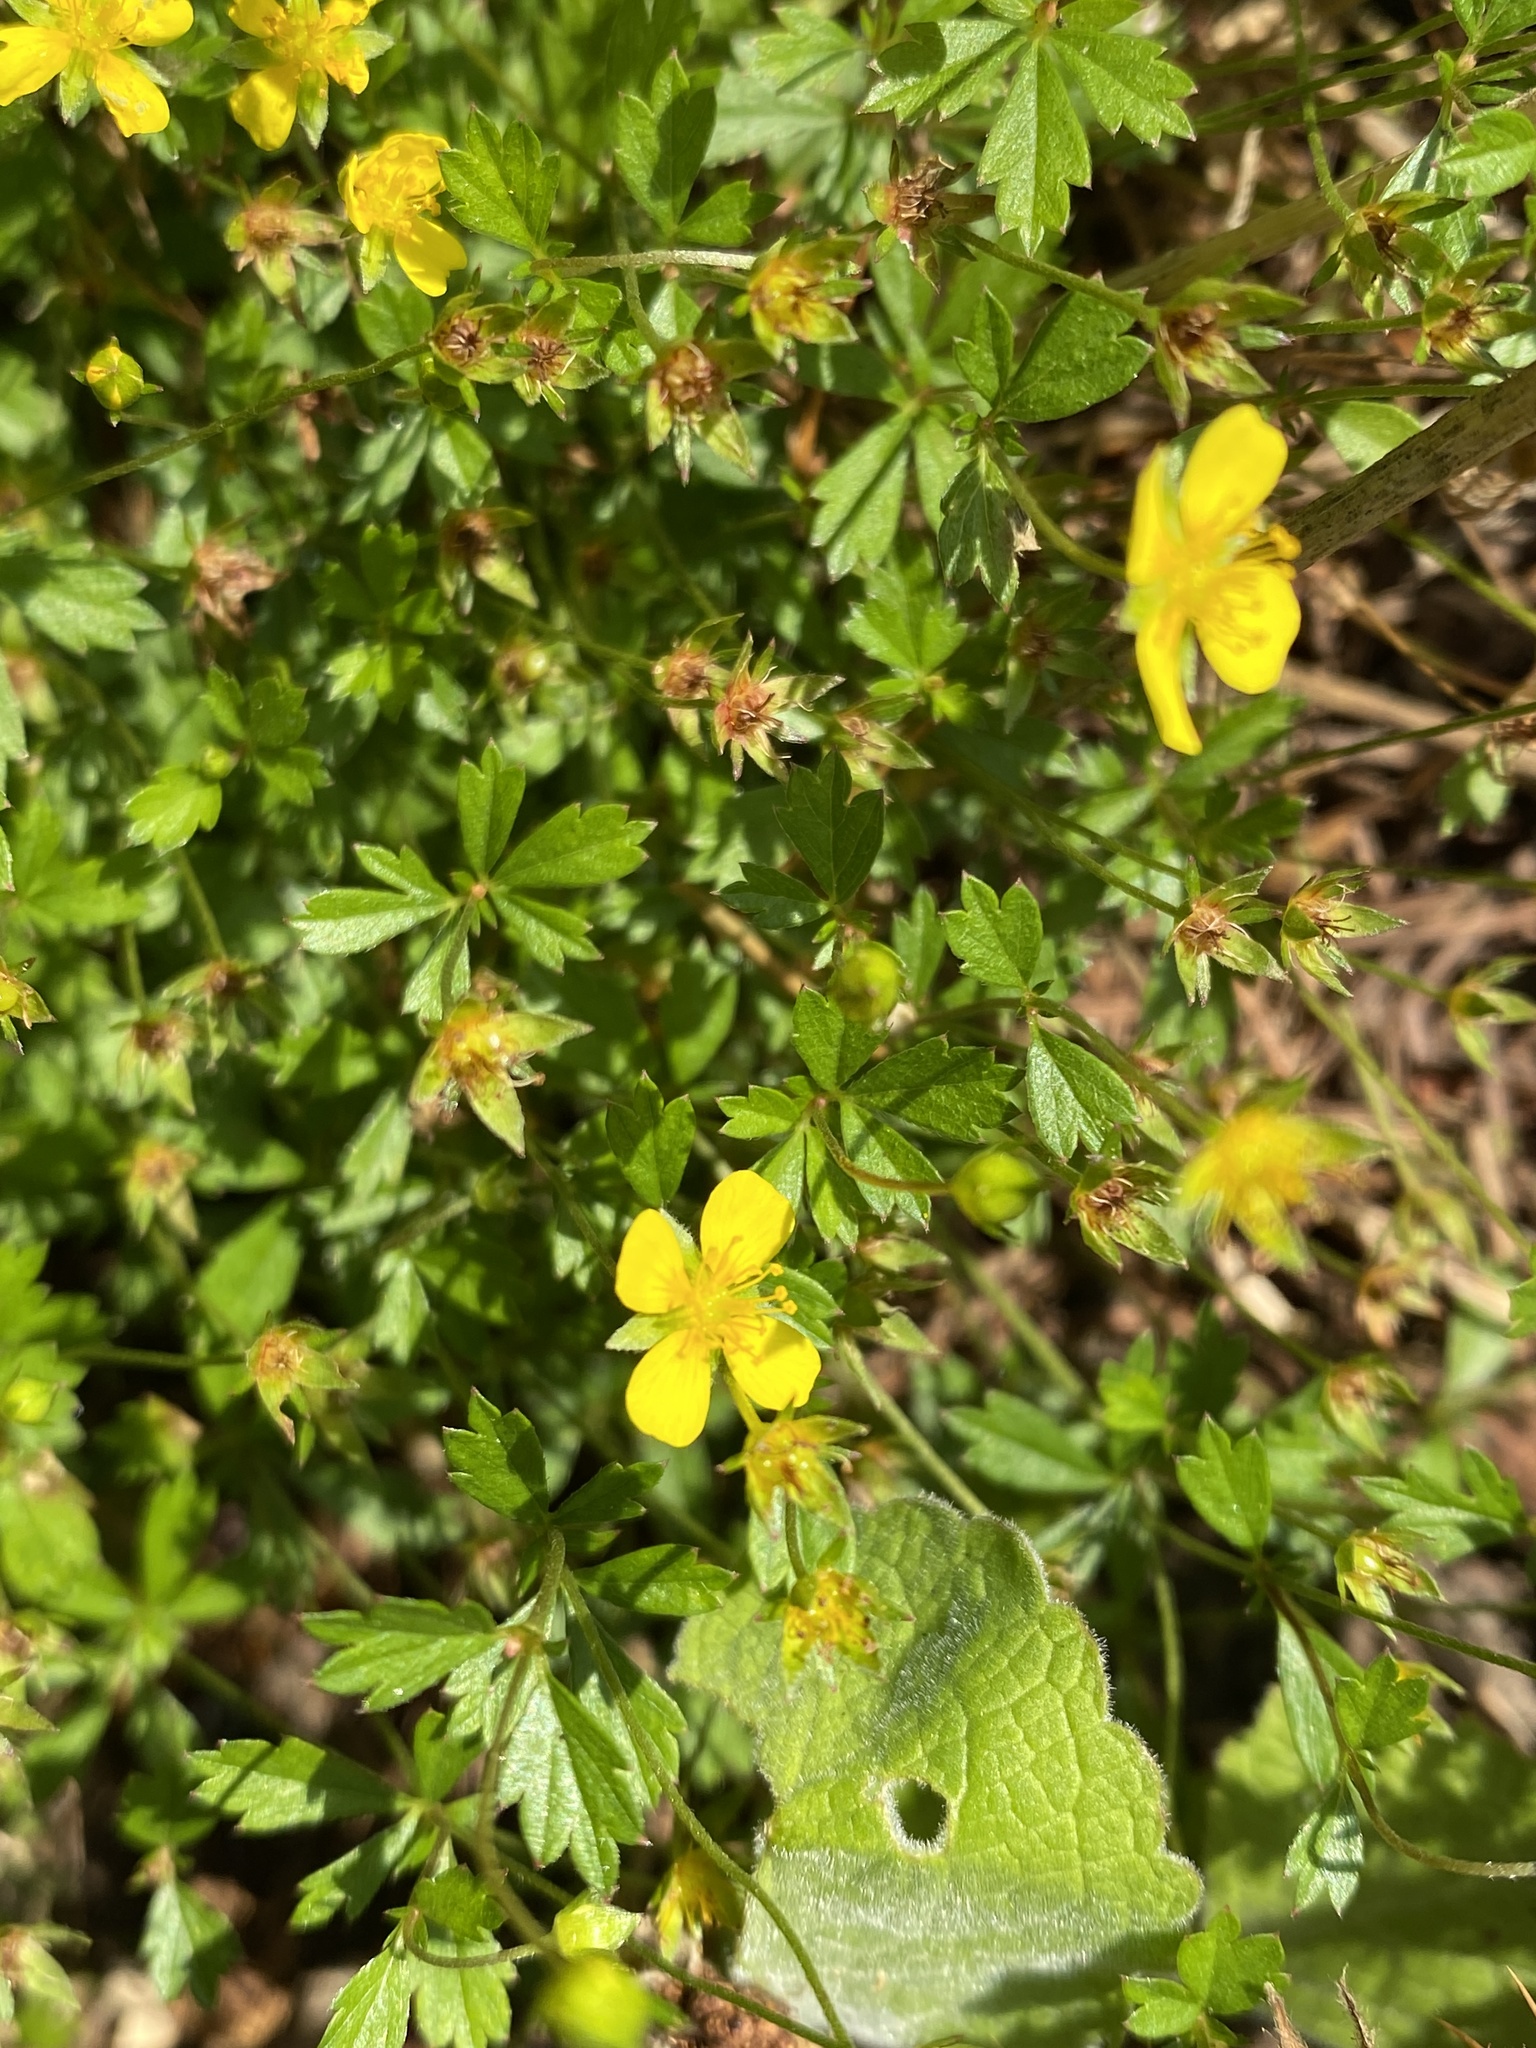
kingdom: Plantae
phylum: Tracheophyta
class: Magnoliopsida
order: Rosales
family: Rosaceae
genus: Potentilla
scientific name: Potentilla erecta
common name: Tormentil
